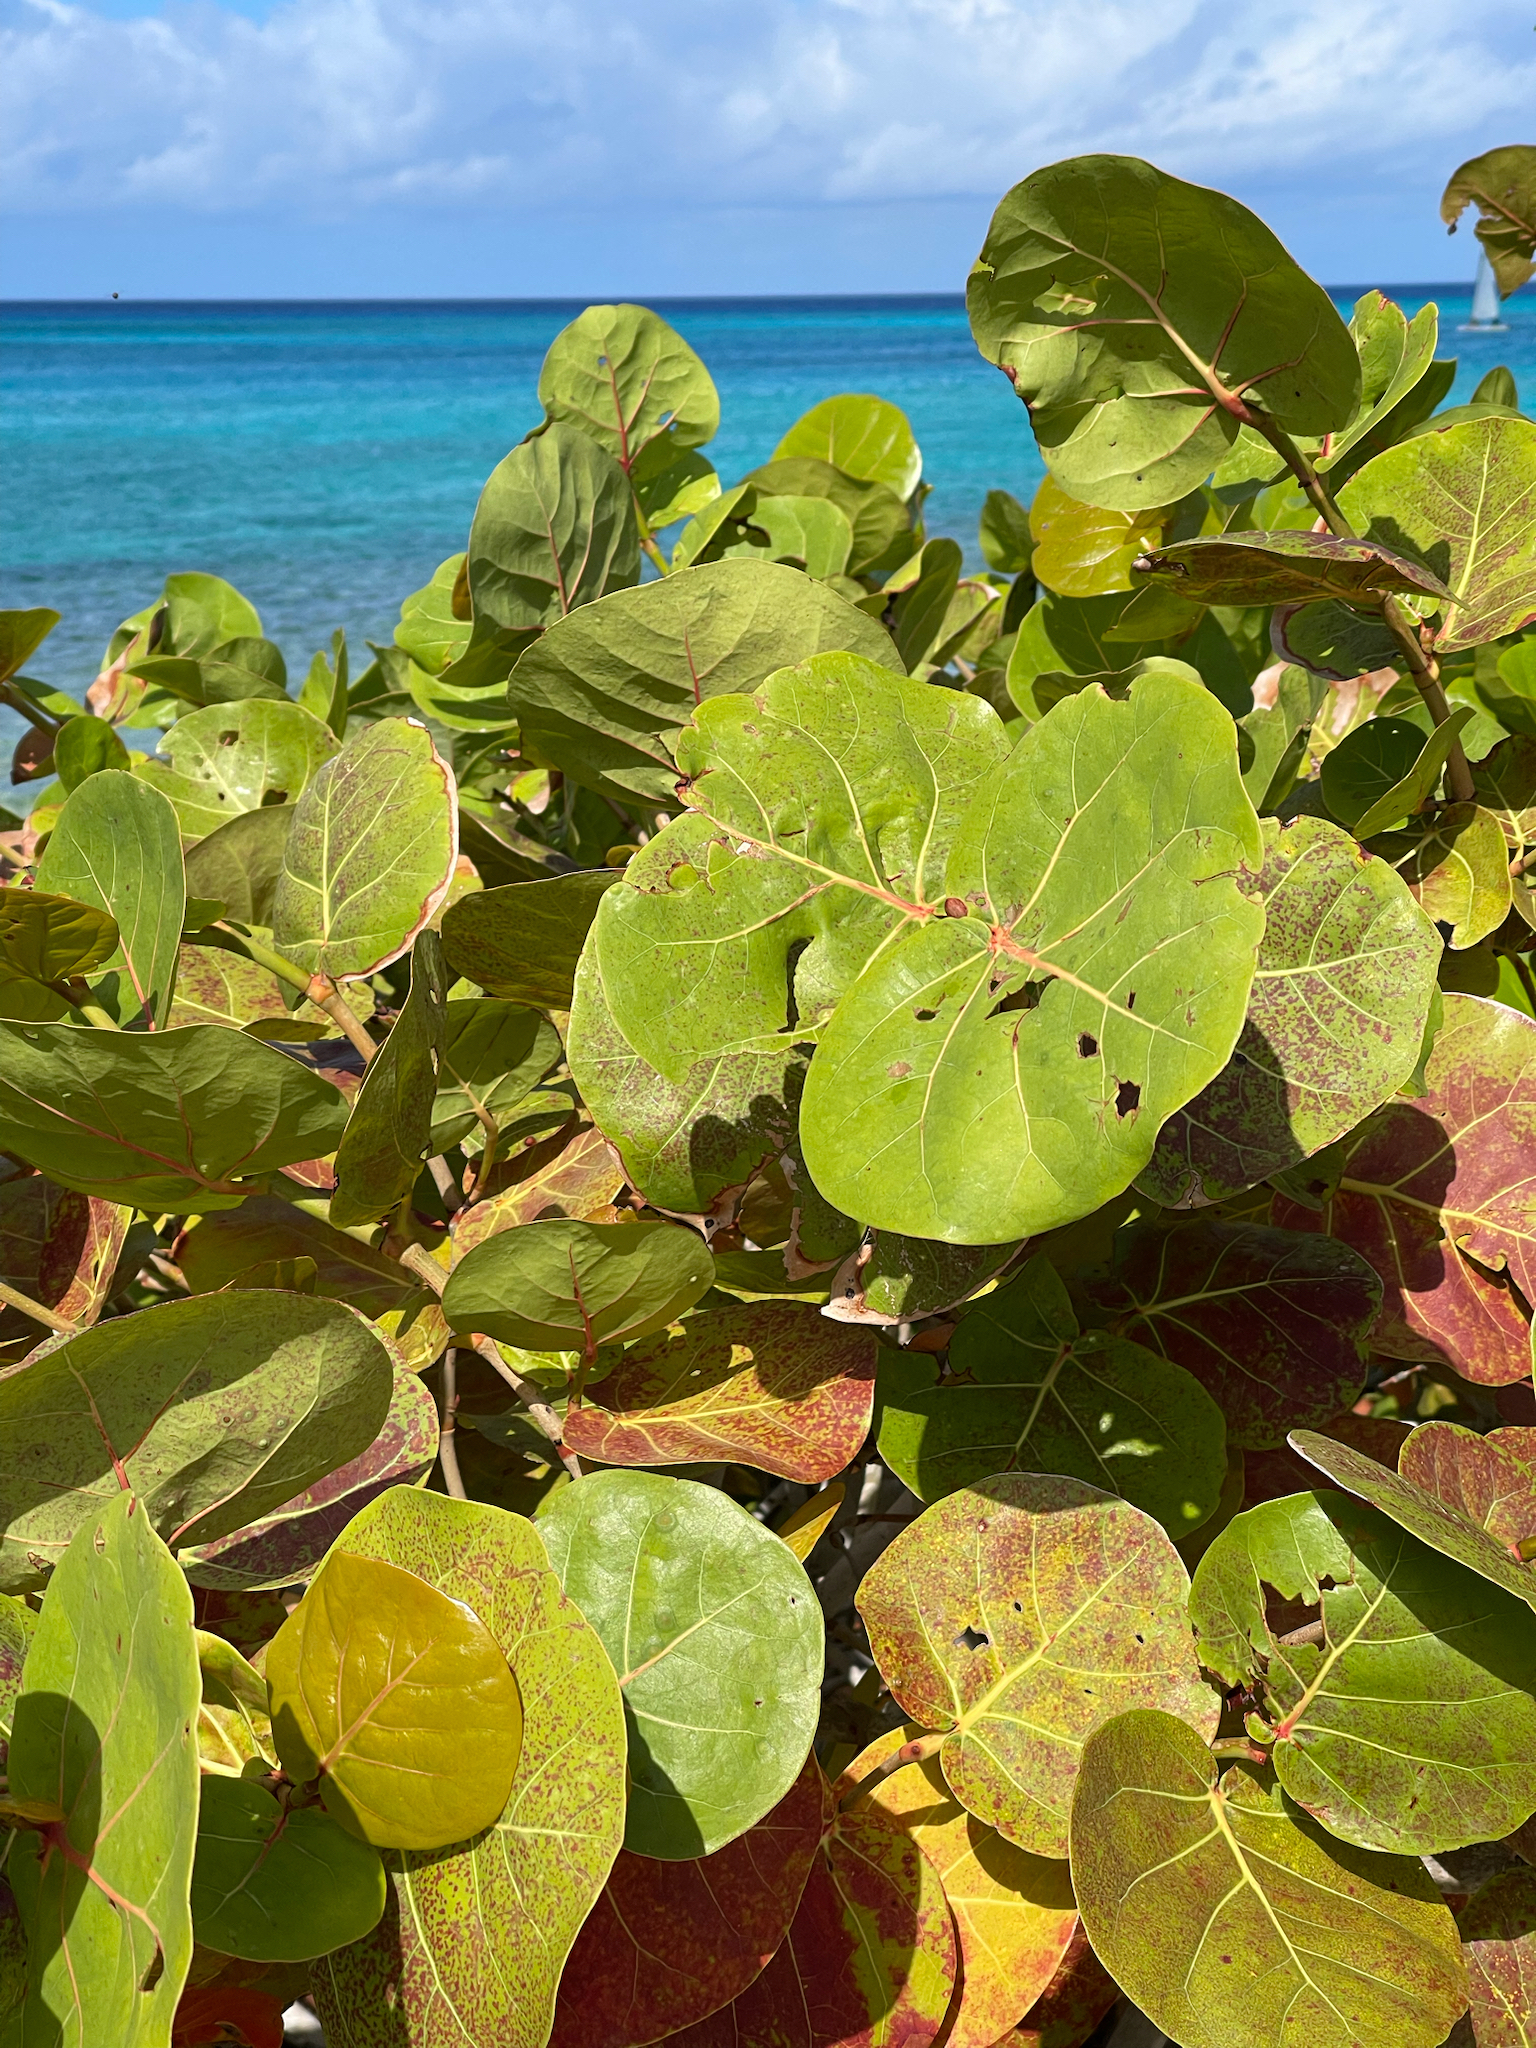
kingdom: Plantae
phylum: Tracheophyta
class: Magnoliopsida
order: Caryophyllales
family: Polygonaceae
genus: Coccoloba
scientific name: Coccoloba uvifera
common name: Seagrape
